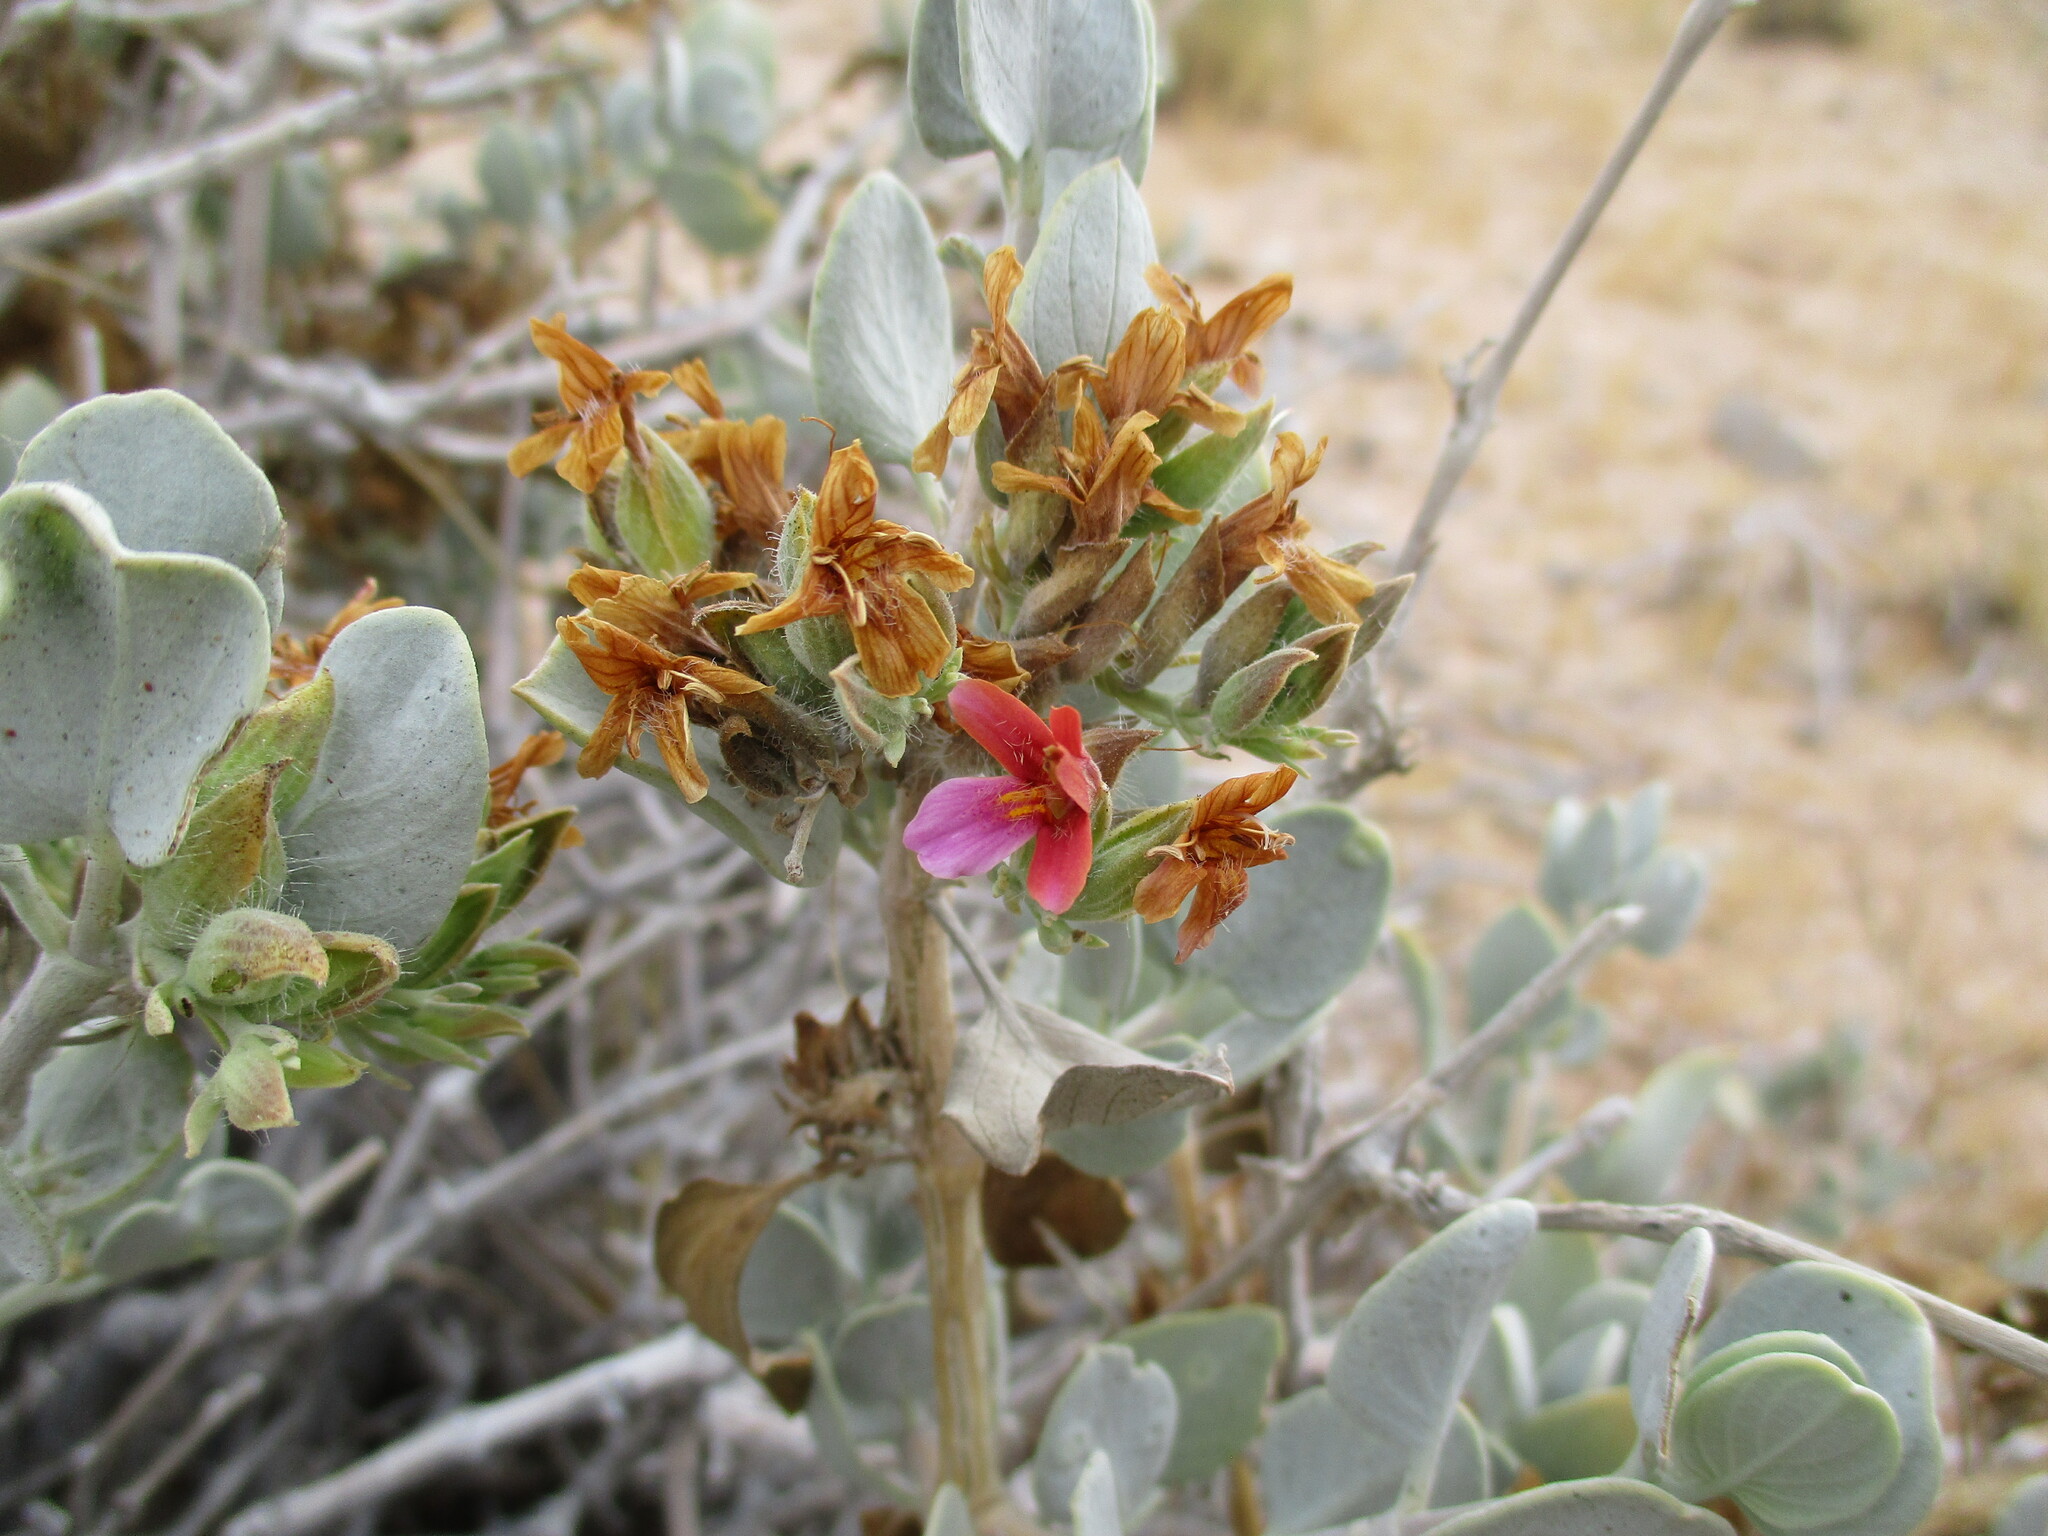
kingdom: Plantae
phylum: Tracheophyta
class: Magnoliopsida
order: Lamiales
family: Acanthaceae
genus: Petalidium
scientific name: Petalidium variabile
